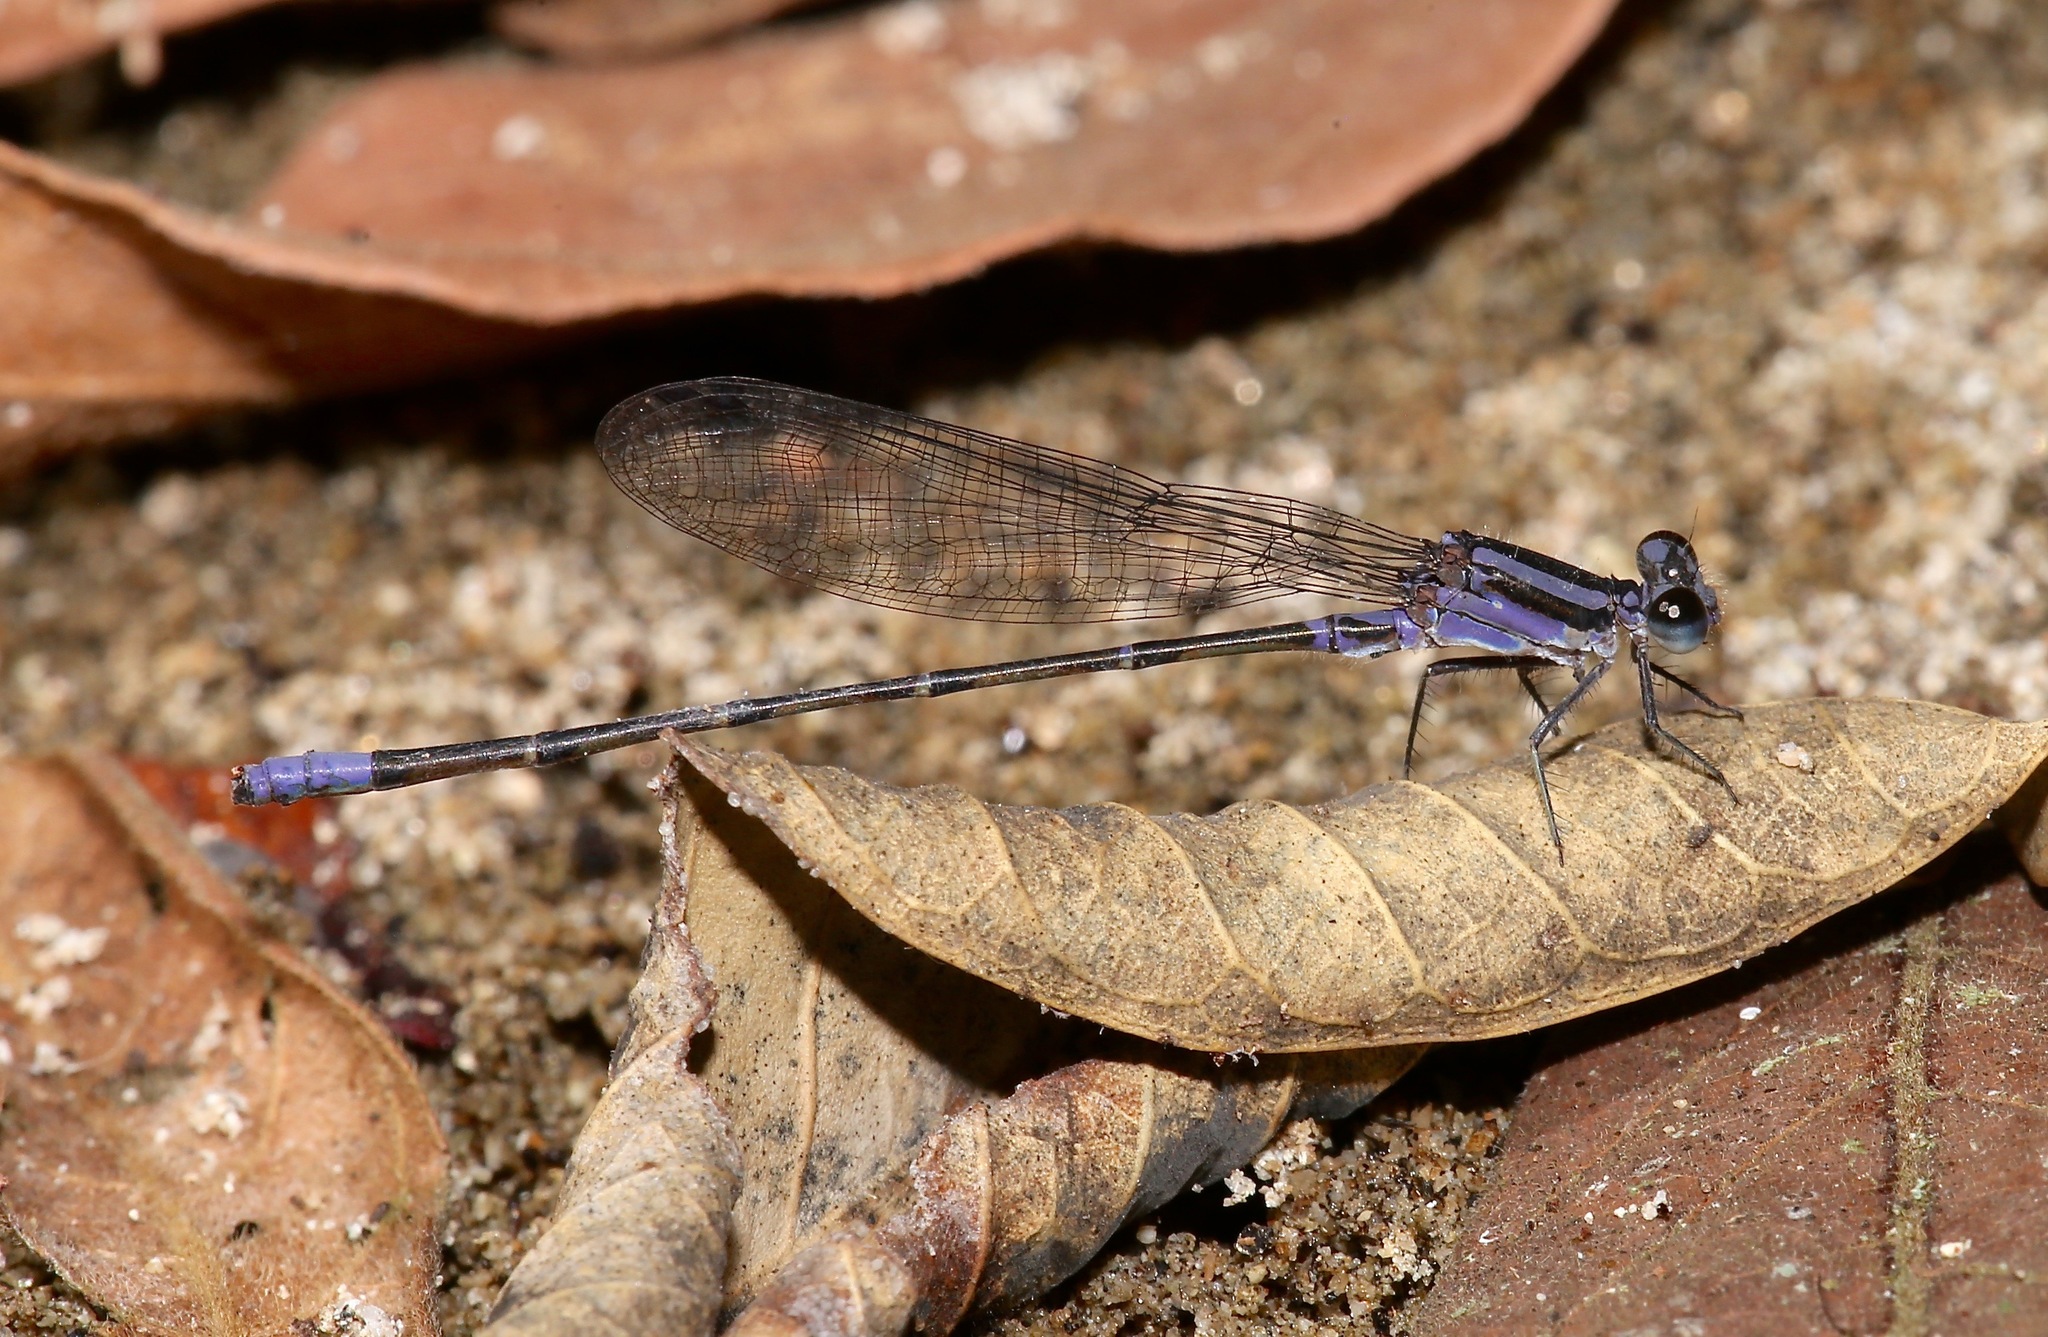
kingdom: Animalia
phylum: Arthropoda
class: Insecta
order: Odonata
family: Coenagrionidae
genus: Argia
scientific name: Argia pulla
